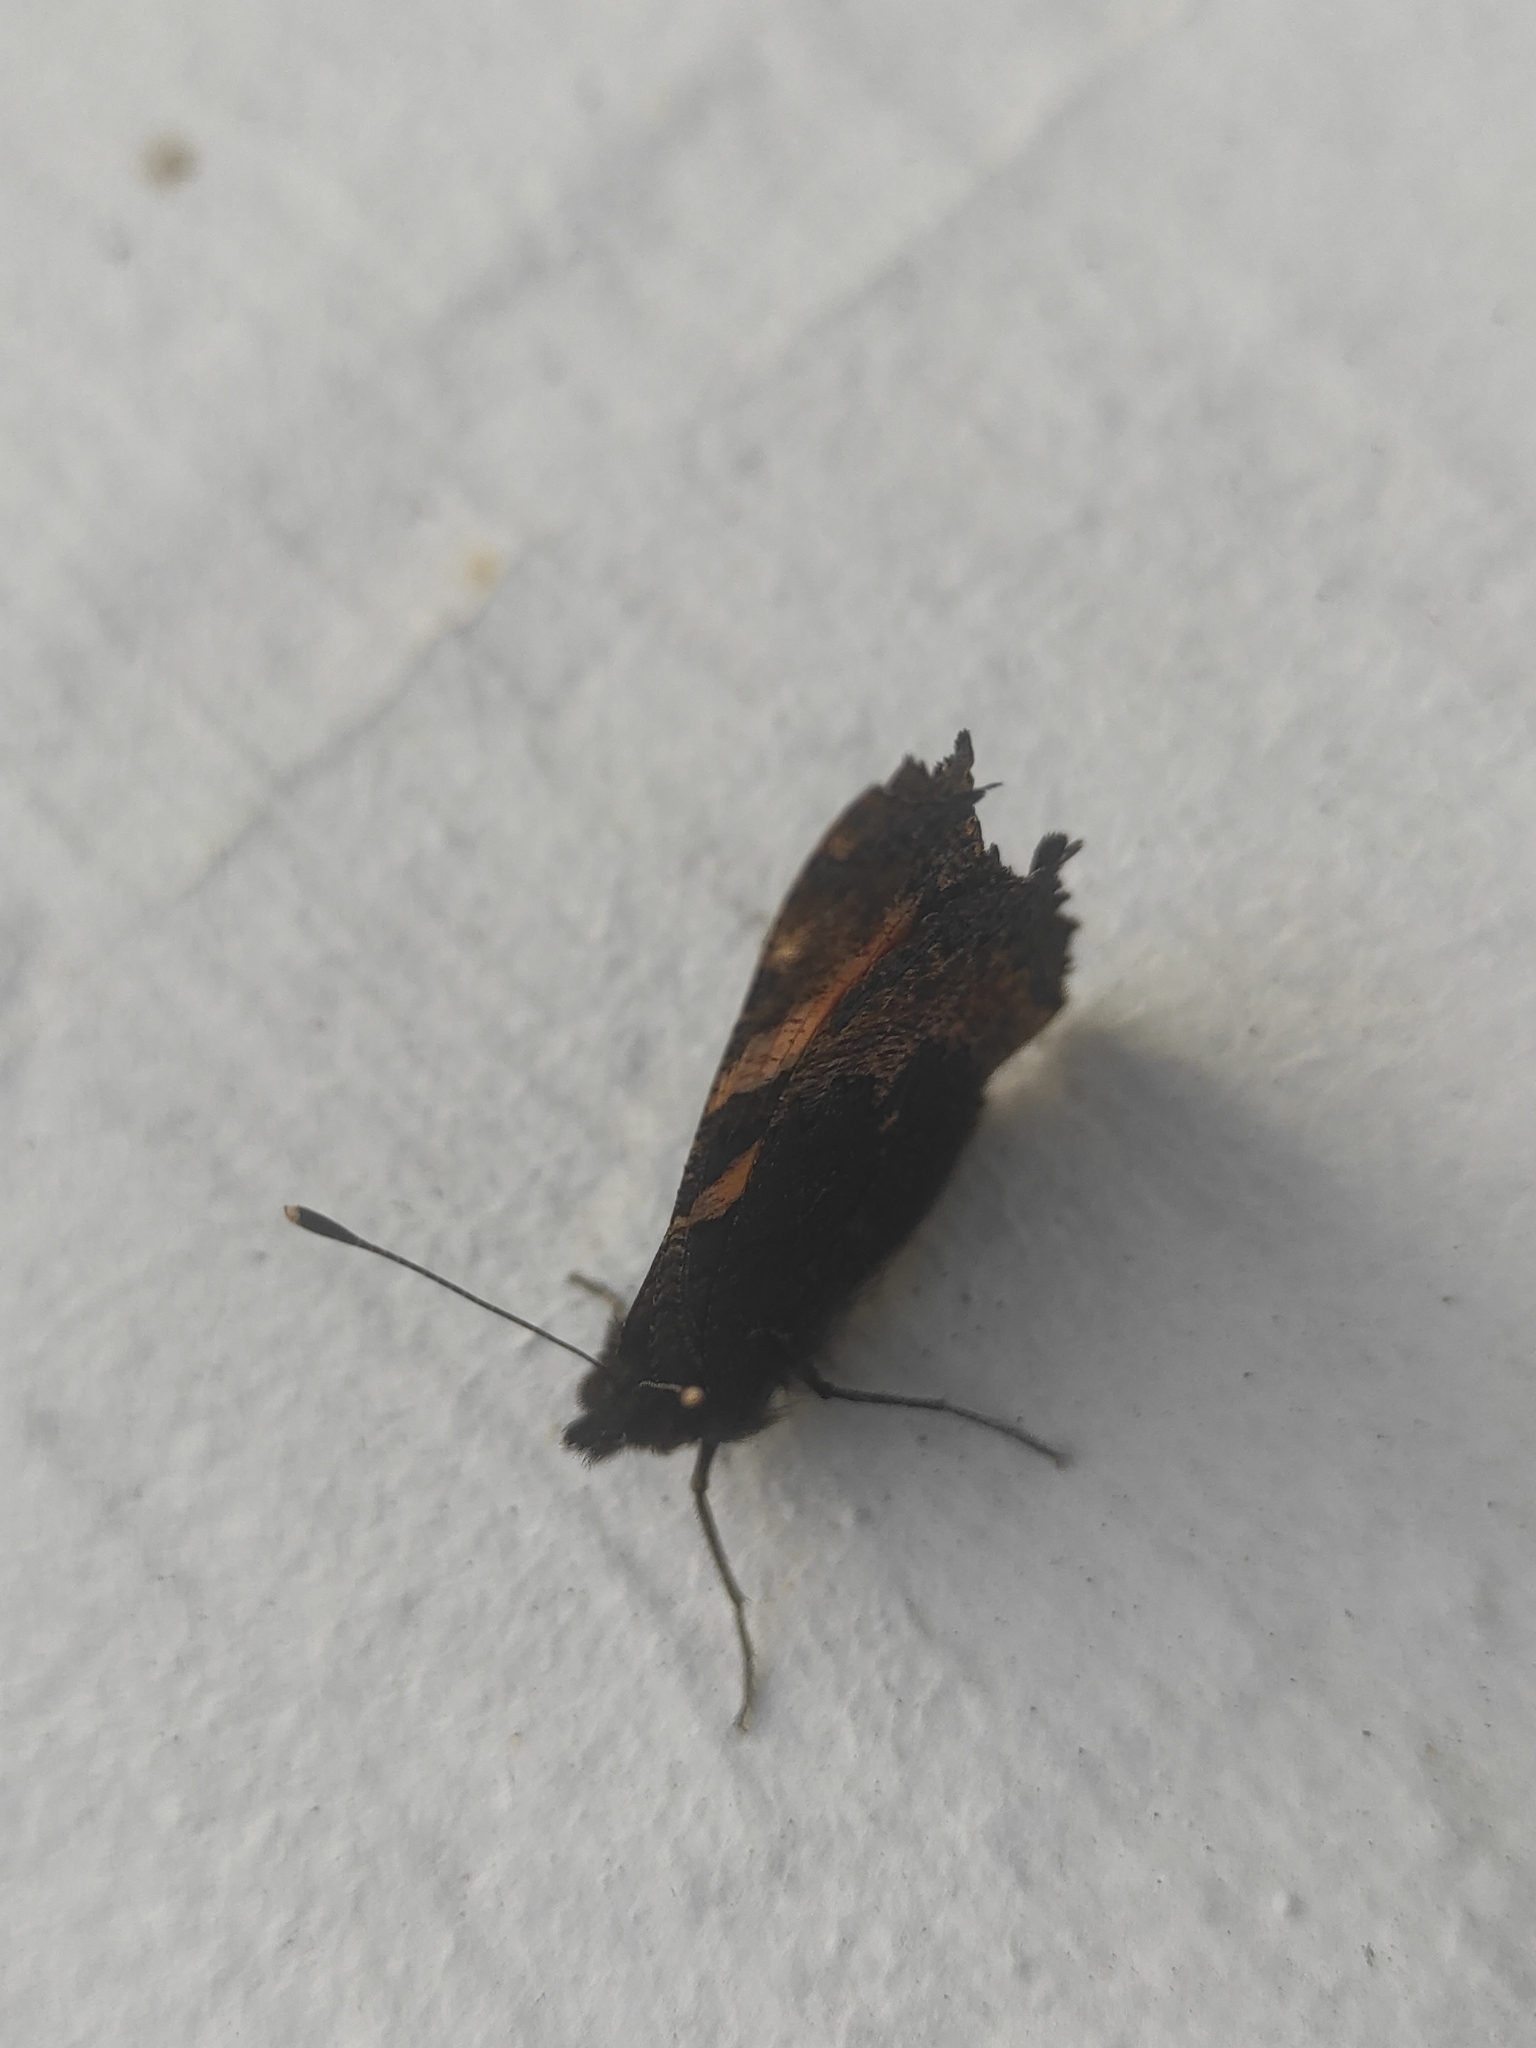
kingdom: Animalia
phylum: Arthropoda
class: Insecta
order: Lepidoptera
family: Nymphalidae
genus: Aglais
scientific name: Aglais urticae
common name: Small tortoiseshell
